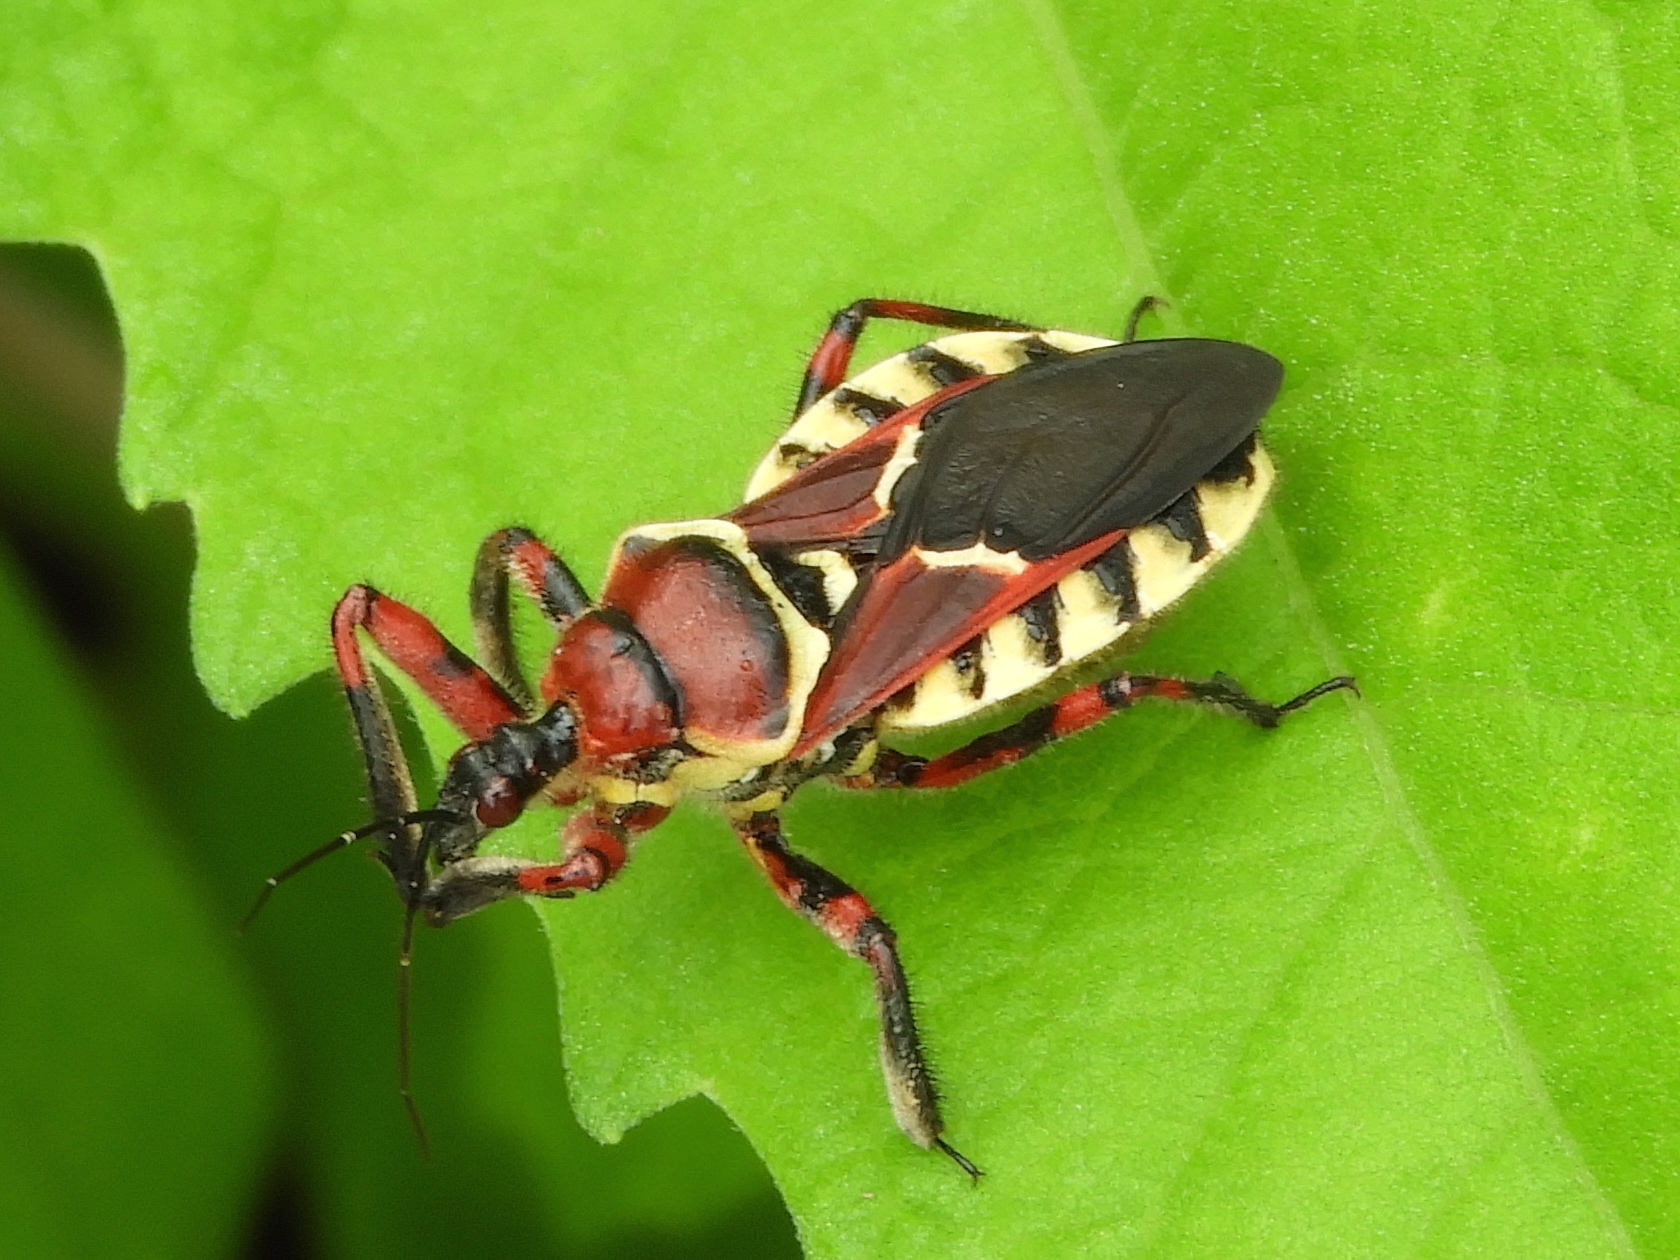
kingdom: Animalia
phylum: Arthropoda
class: Insecta
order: Hemiptera
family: Reduviidae
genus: Apiomerus
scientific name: Apiomerus flaviventris
